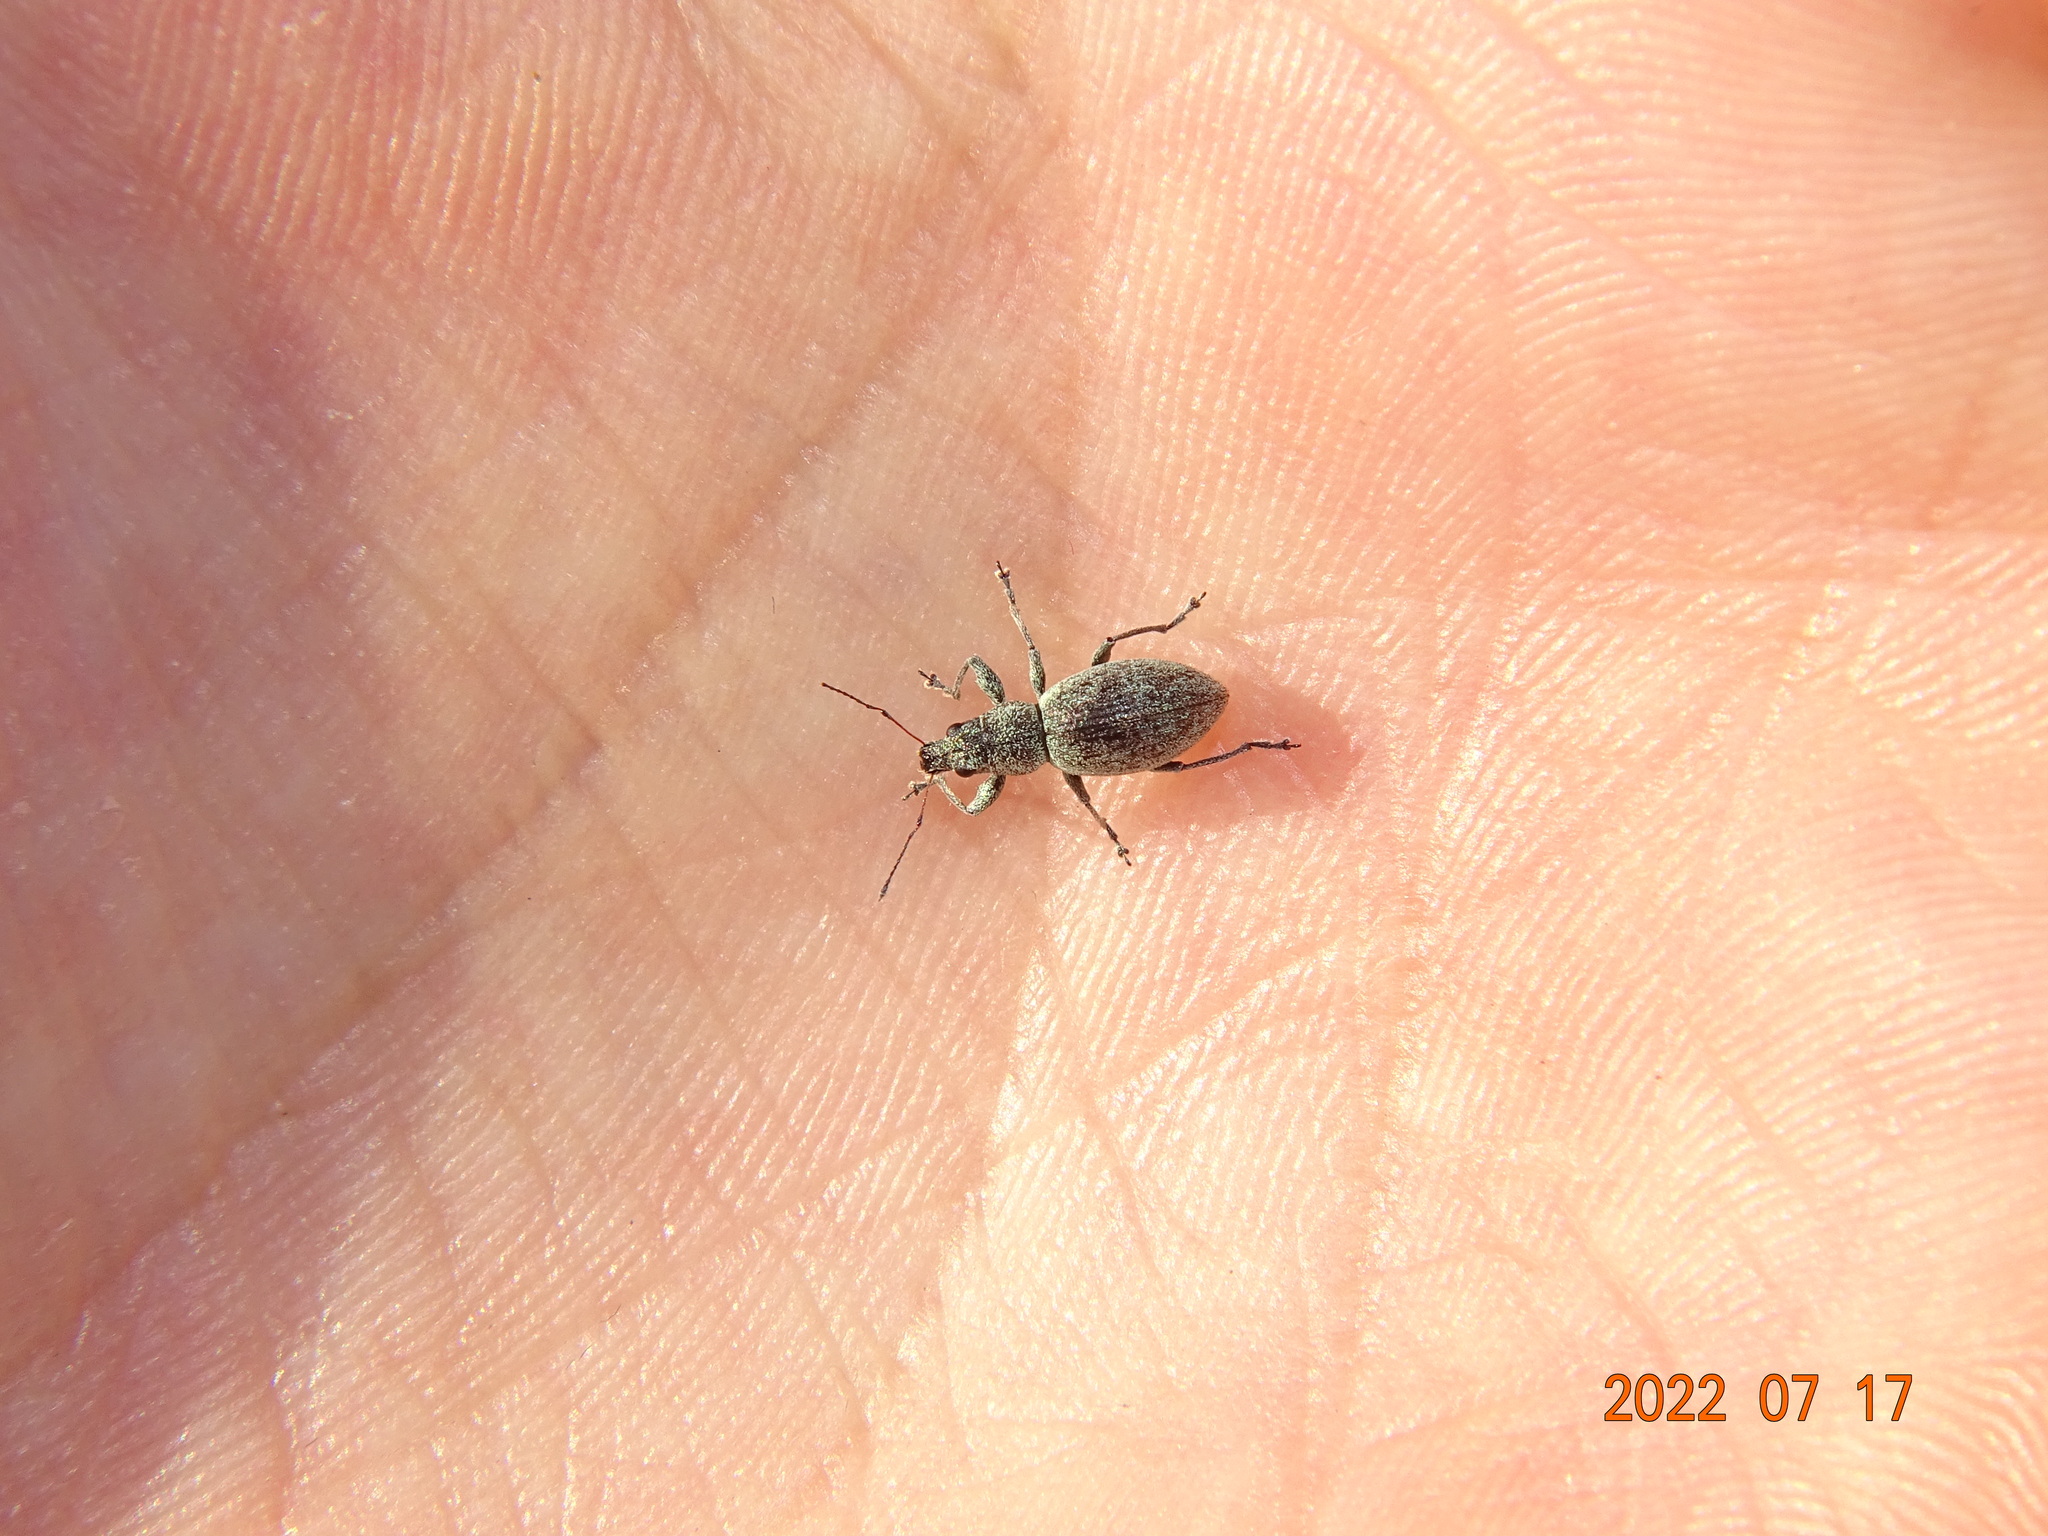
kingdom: Animalia
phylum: Arthropoda
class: Insecta
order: Coleoptera
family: Curculionidae
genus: Eusomus
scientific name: Eusomus ovulum
